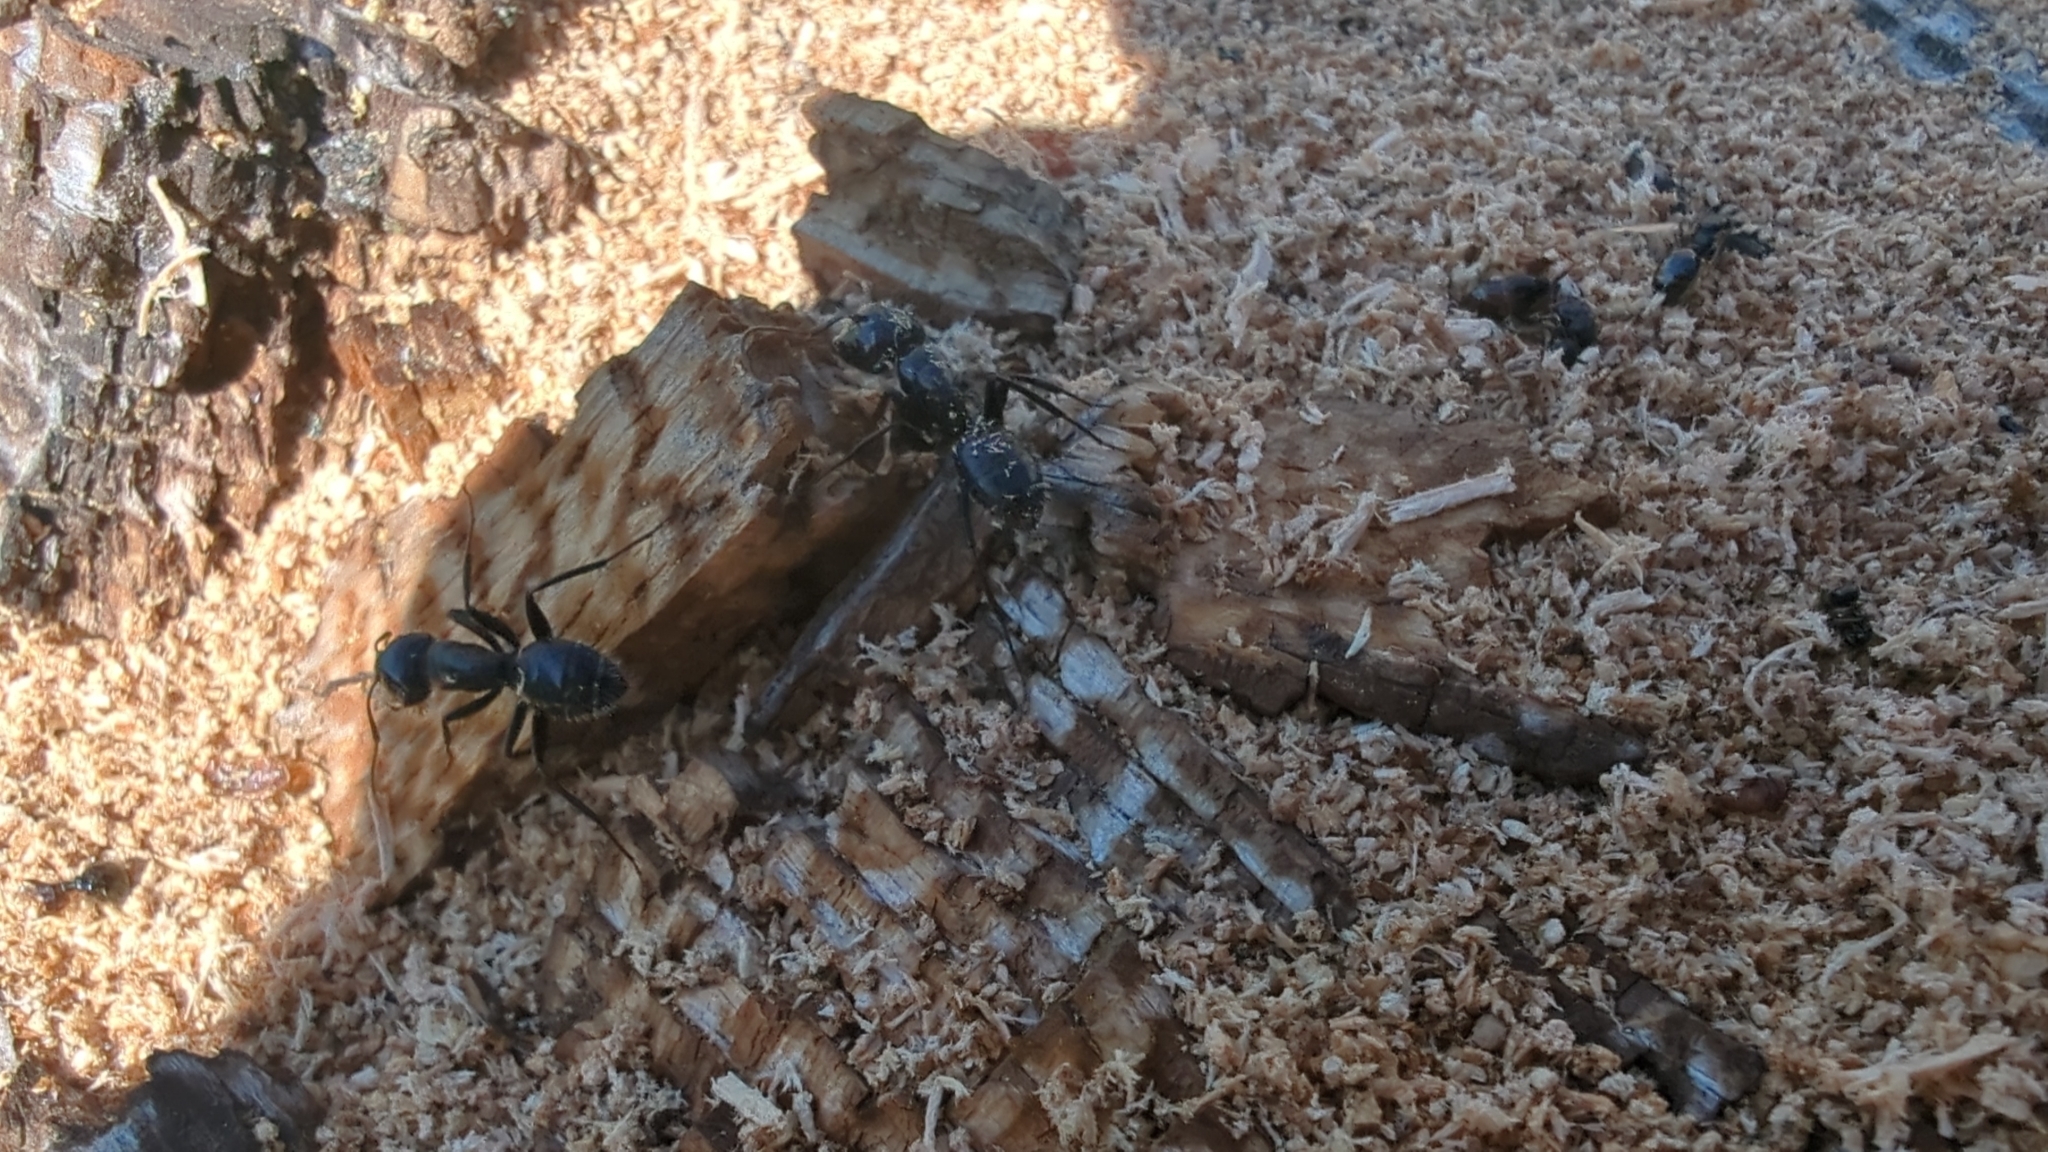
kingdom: Animalia
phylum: Arthropoda
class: Insecta
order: Hymenoptera
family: Formicidae
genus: Camponotus
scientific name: Camponotus
